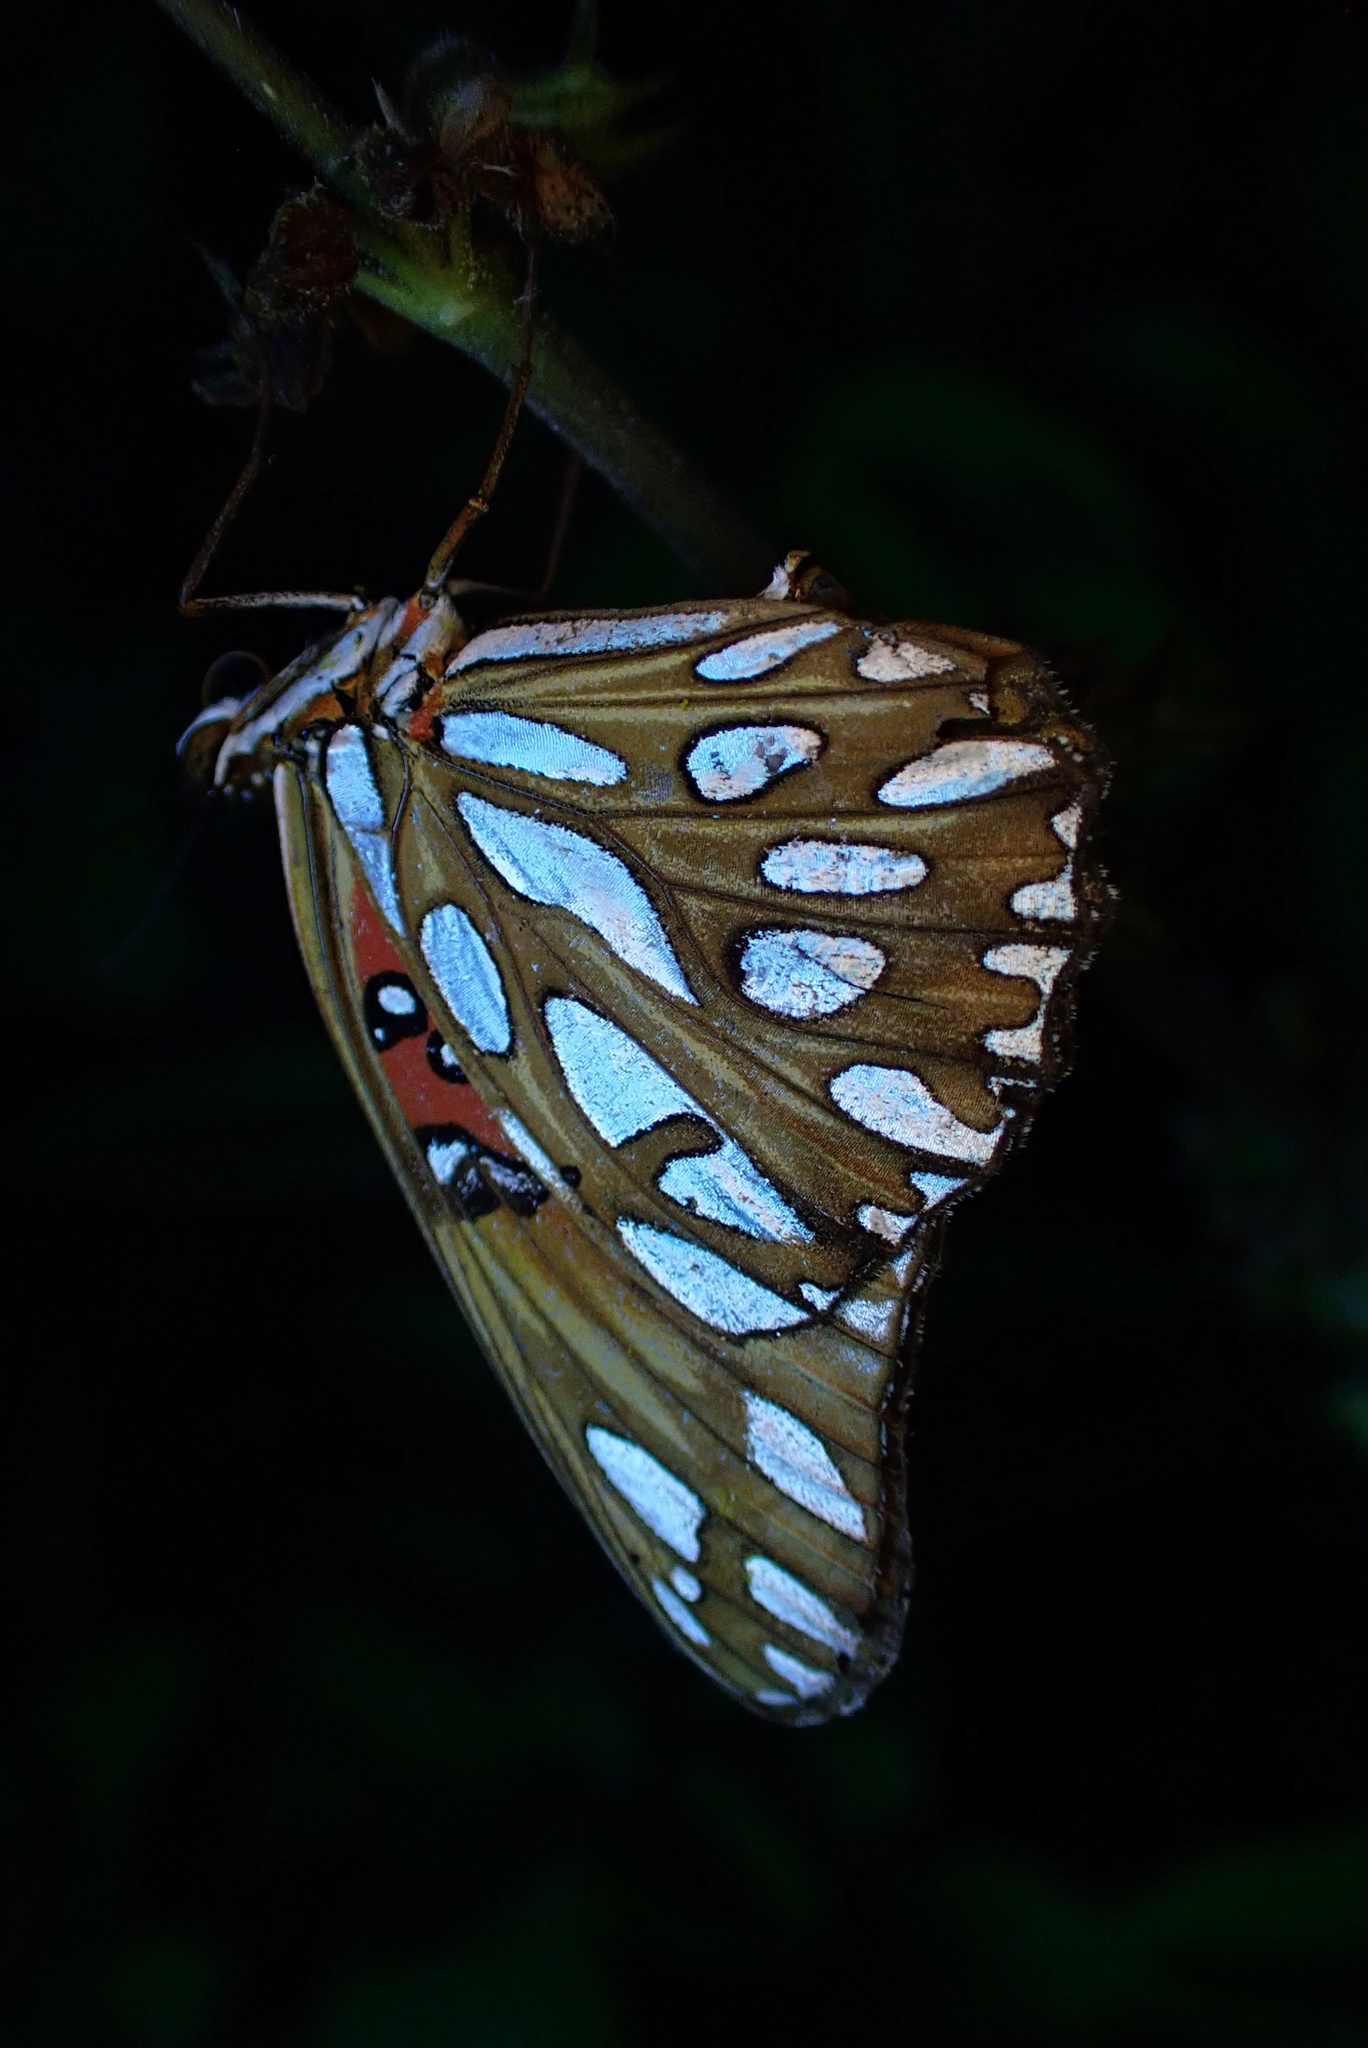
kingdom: Animalia
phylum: Arthropoda
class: Insecta
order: Lepidoptera
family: Nymphalidae
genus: Dione
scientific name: Dione vanillae
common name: Gulf fritillary
